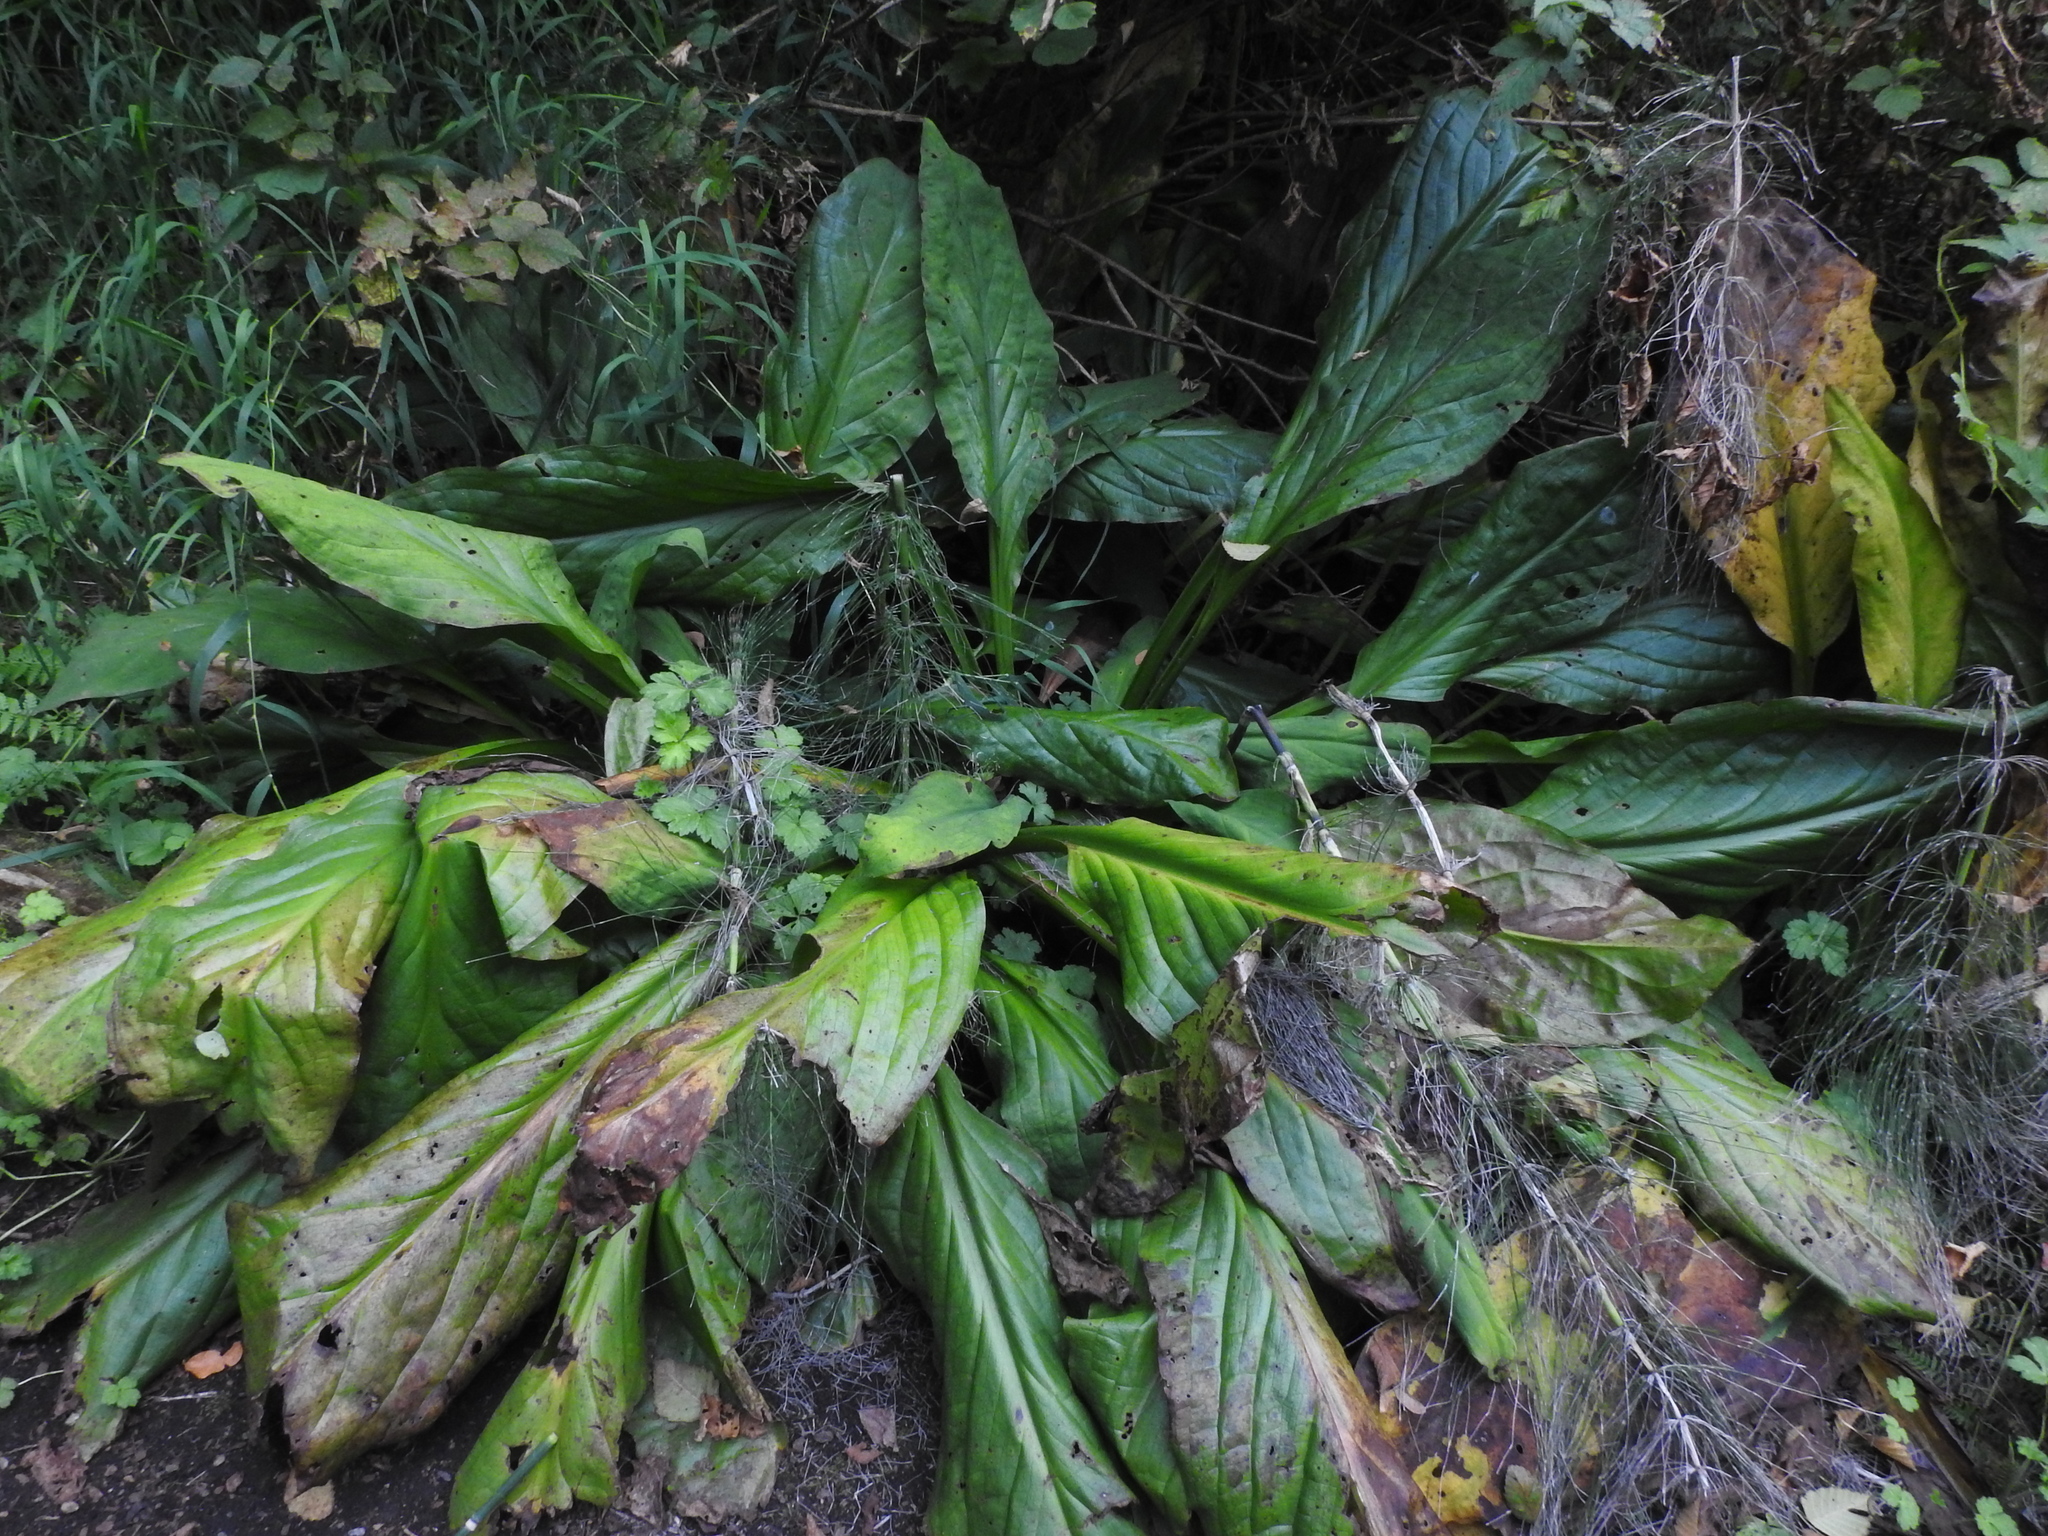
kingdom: Plantae
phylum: Tracheophyta
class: Liliopsida
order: Alismatales
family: Araceae
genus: Lysichiton
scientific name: Lysichiton americanus
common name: American skunk cabbage
